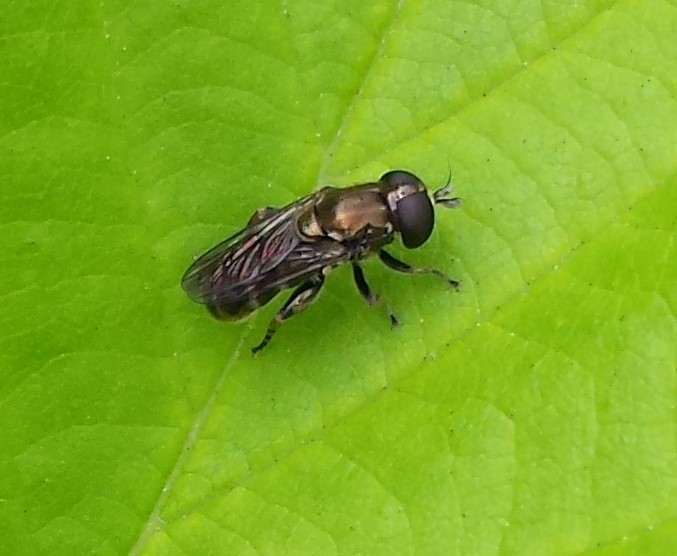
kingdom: Animalia
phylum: Arthropoda
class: Insecta
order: Diptera
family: Syrphidae
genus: Eumerus
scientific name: Eumerus
